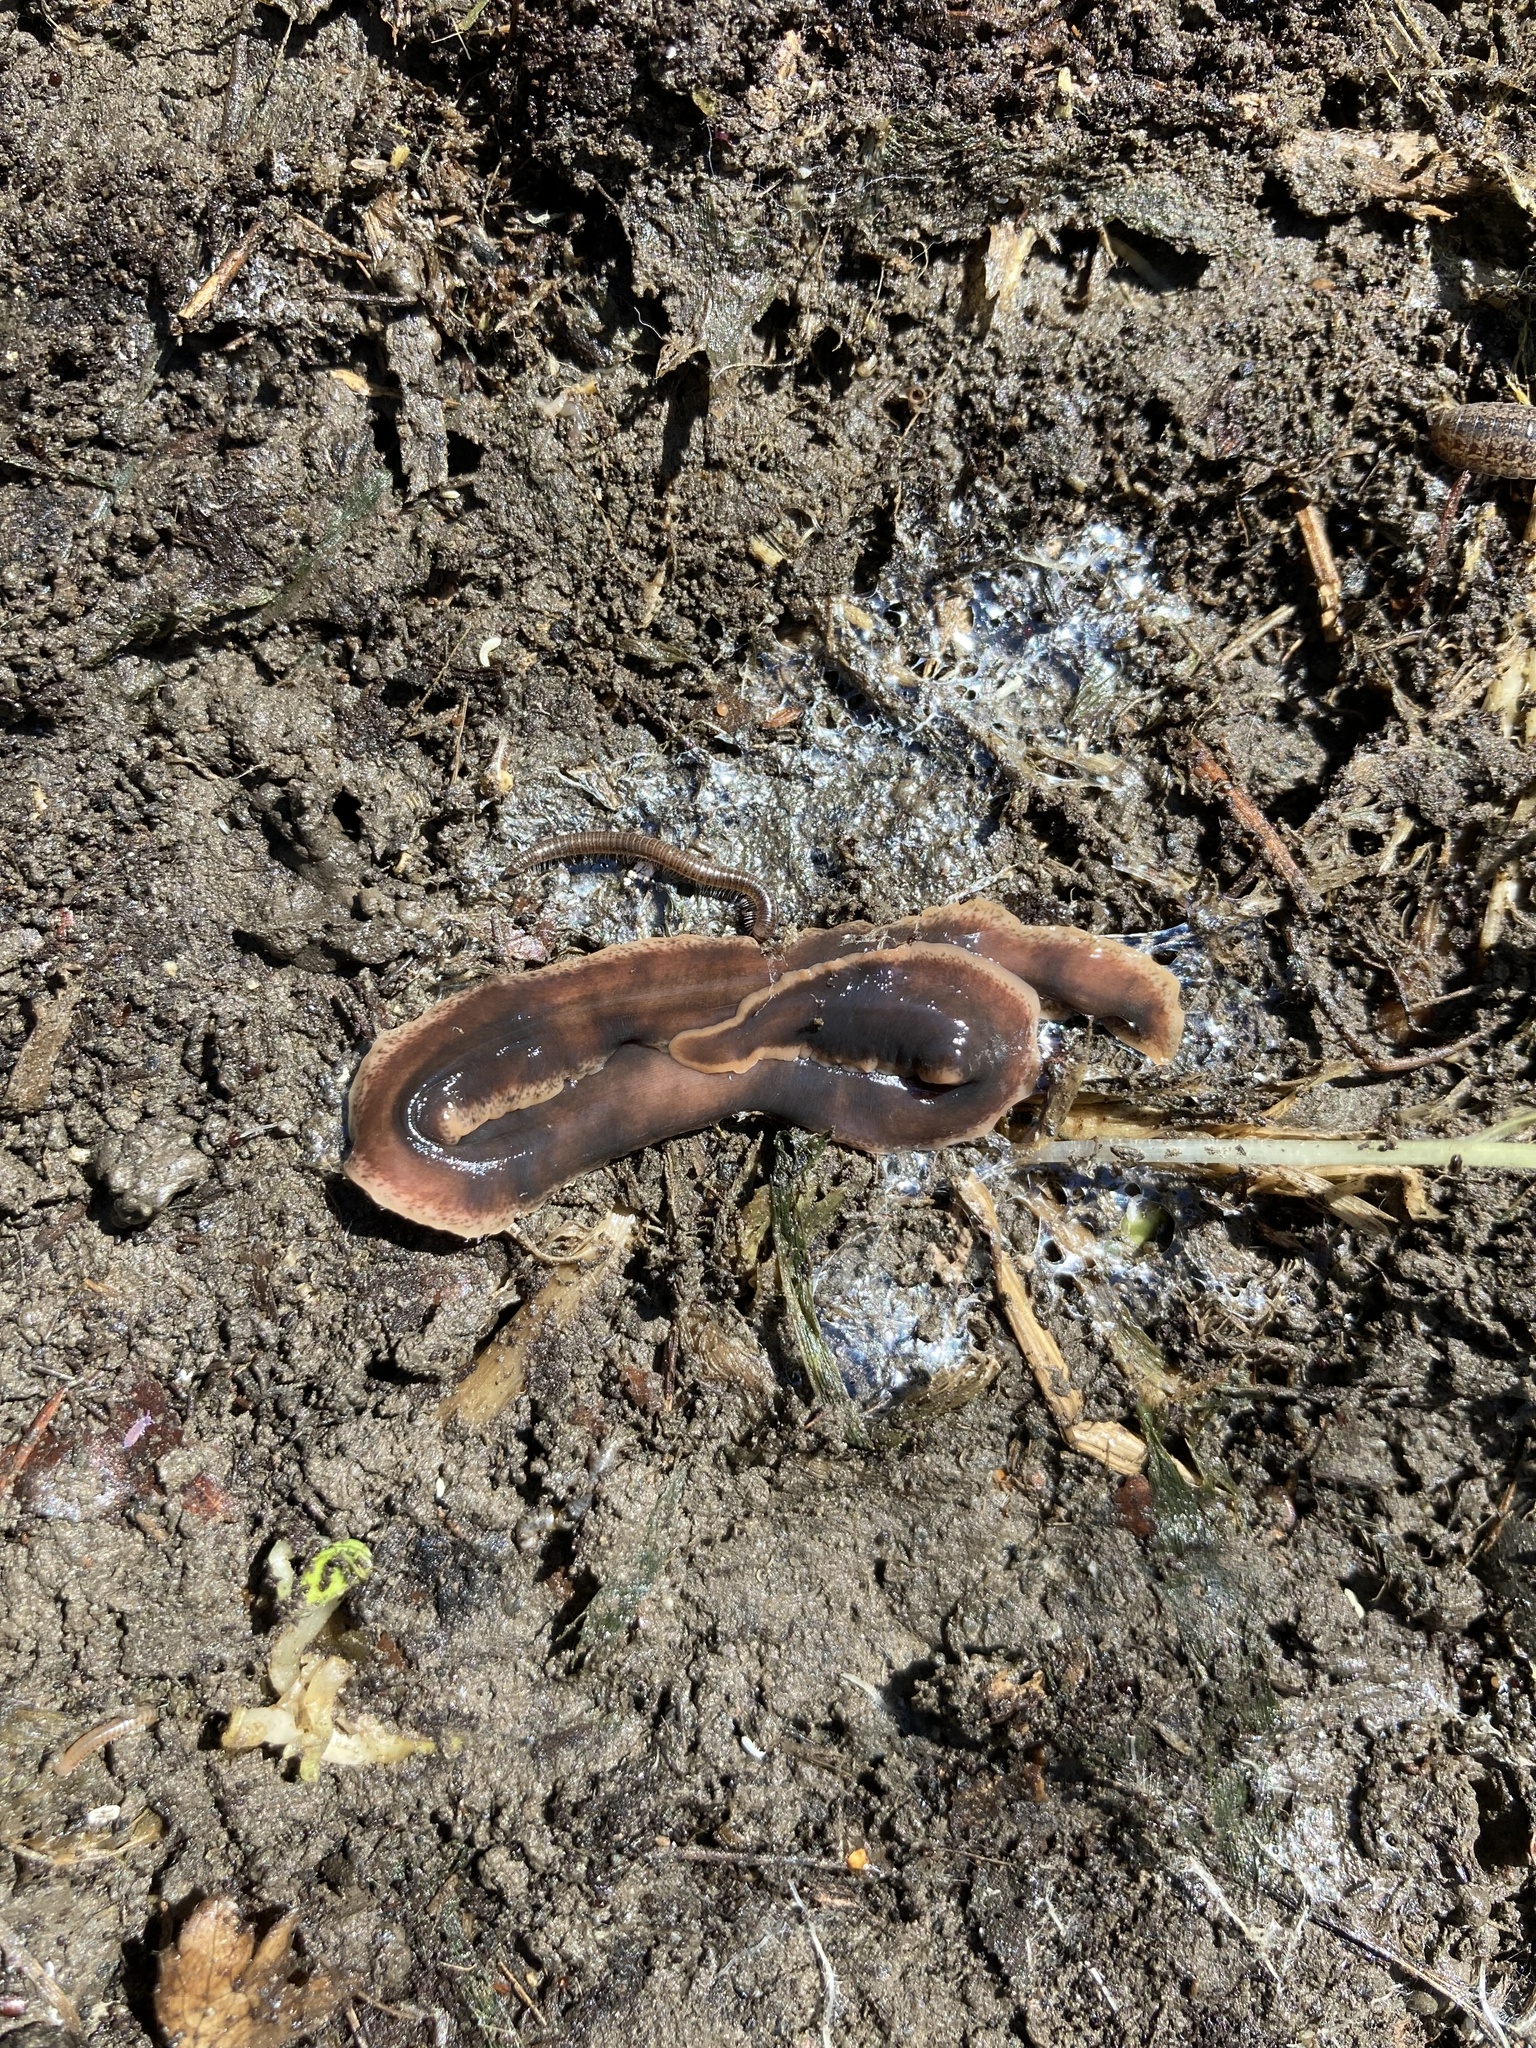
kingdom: Animalia
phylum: Platyhelminthes
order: Tricladida
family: Geoplanidae
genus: Arthurdendyus
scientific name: Arthurdendyus triangulatus
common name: New zealand flatworm
